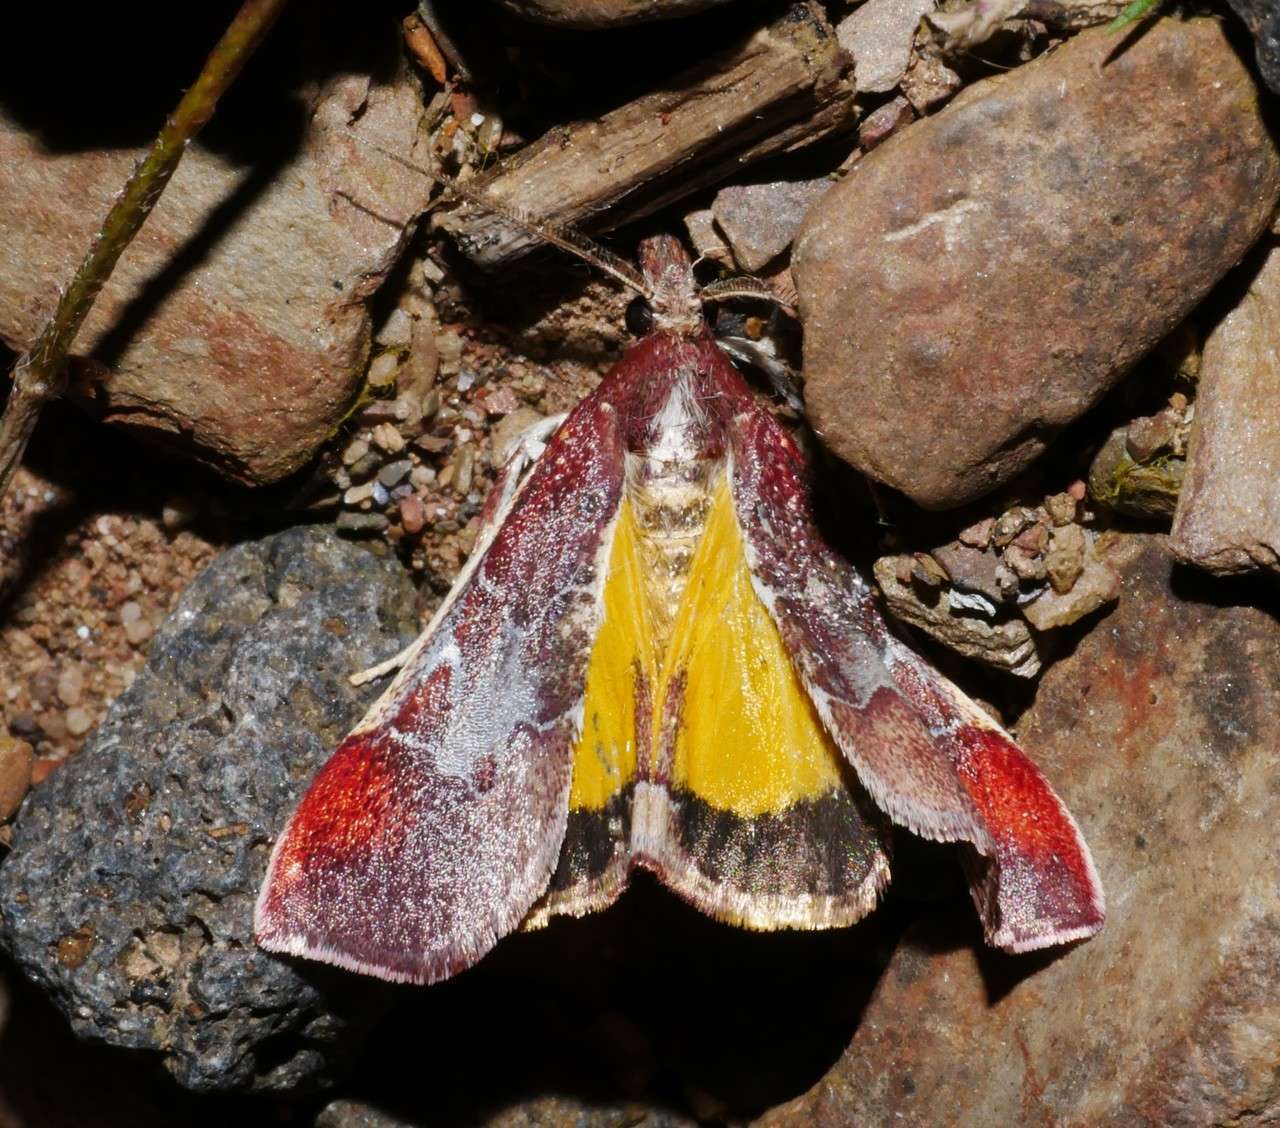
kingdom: Animalia
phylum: Arthropoda
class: Insecta
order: Lepidoptera
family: Pyralidae
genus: Anemosa
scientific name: Anemosa exanthes
